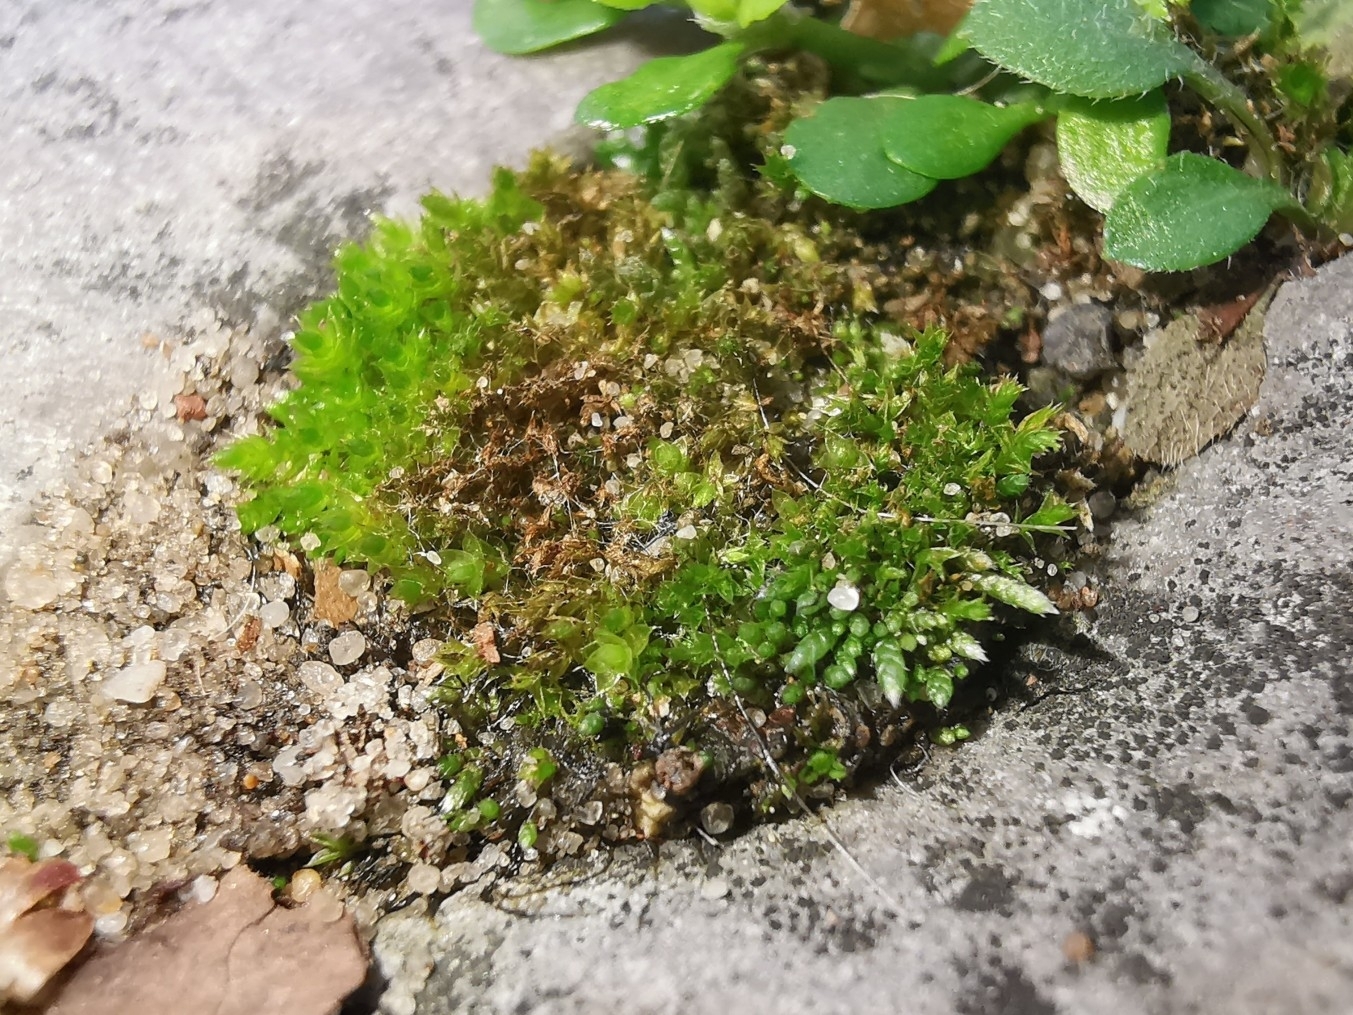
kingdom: Plantae
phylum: Bryophyta
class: Bryopsida
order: Bryales
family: Bryaceae
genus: Bryum
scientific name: Bryum argenteum
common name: Silver-moss
